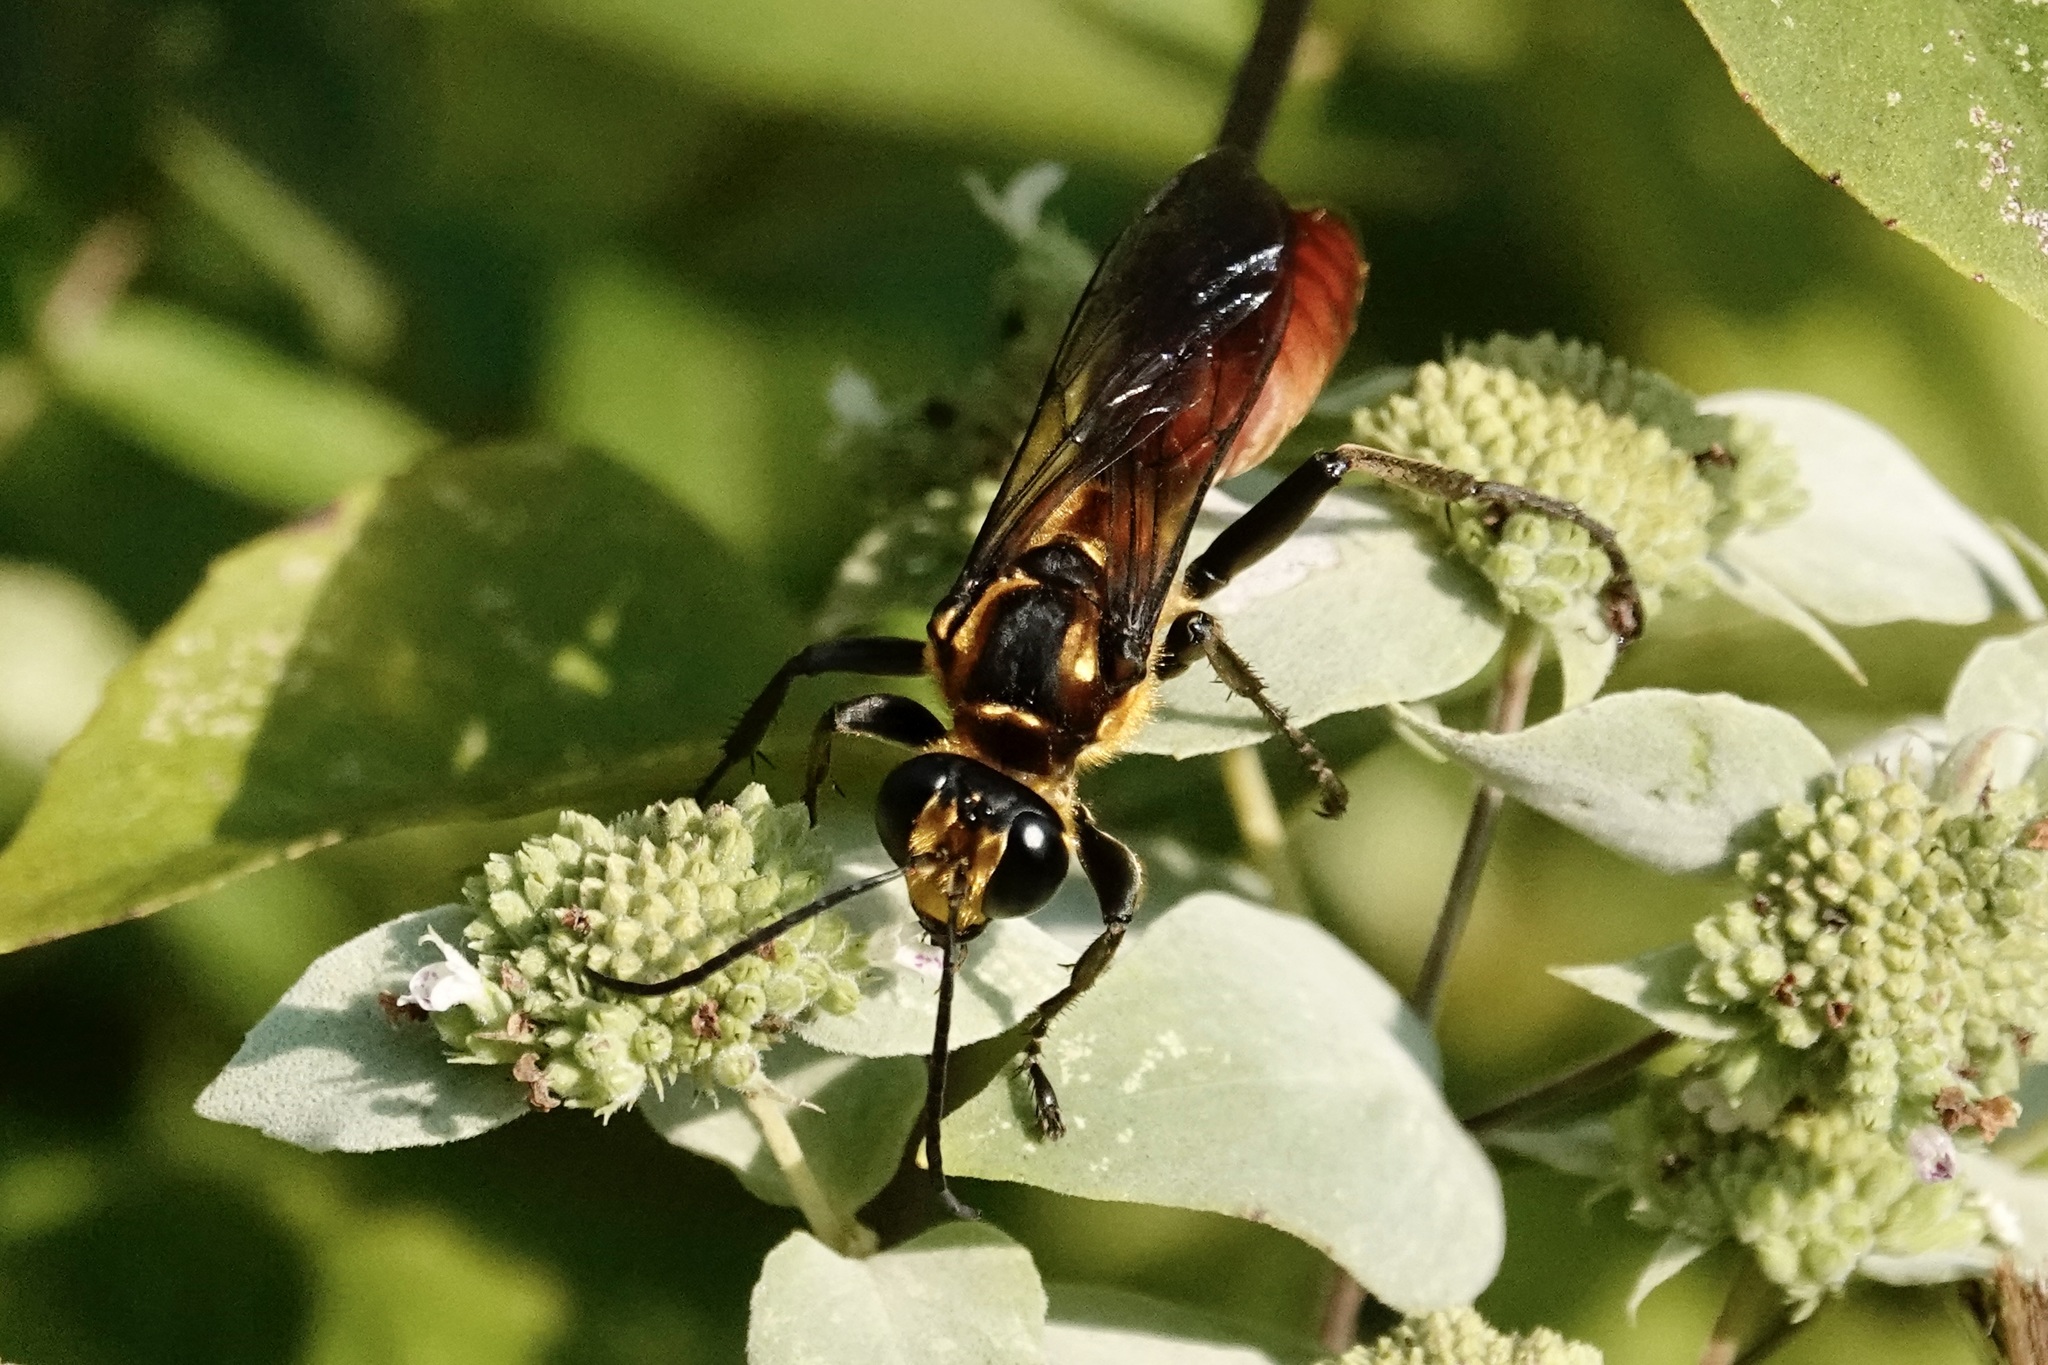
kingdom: Animalia
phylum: Arthropoda
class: Insecta
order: Hymenoptera
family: Sphecidae
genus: Sphex
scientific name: Sphex habenus
